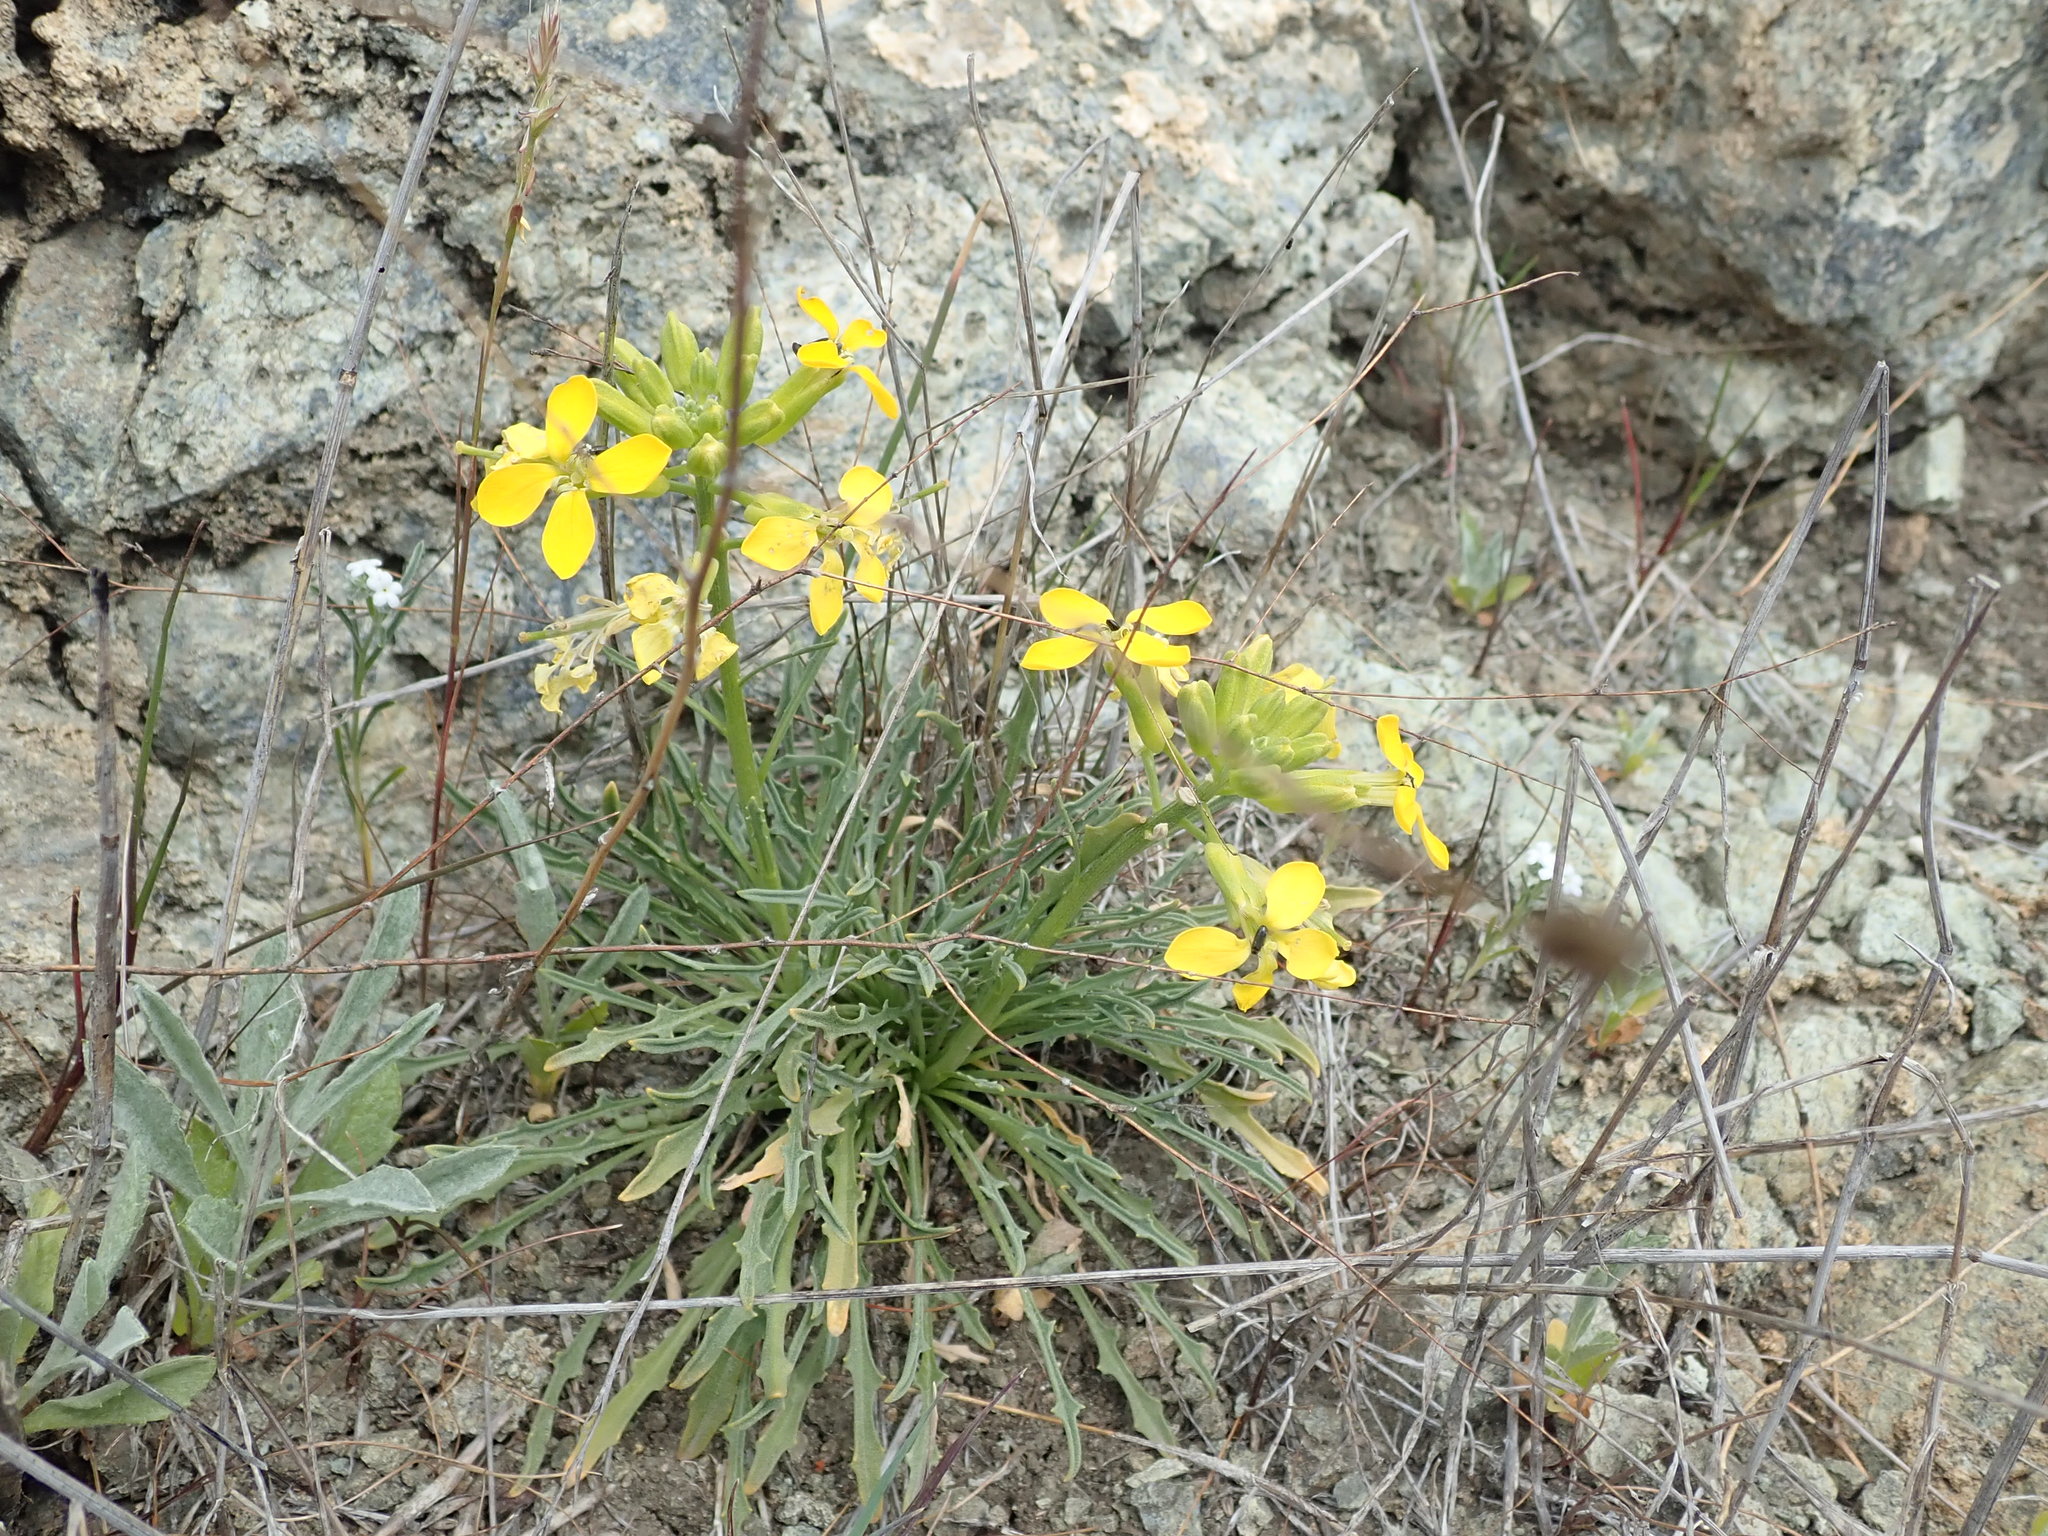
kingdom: Plantae
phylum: Tracheophyta
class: Magnoliopsida
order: Brassicales
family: Brassicaceae
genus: Erysimum
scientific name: Erysimum franciscanum
